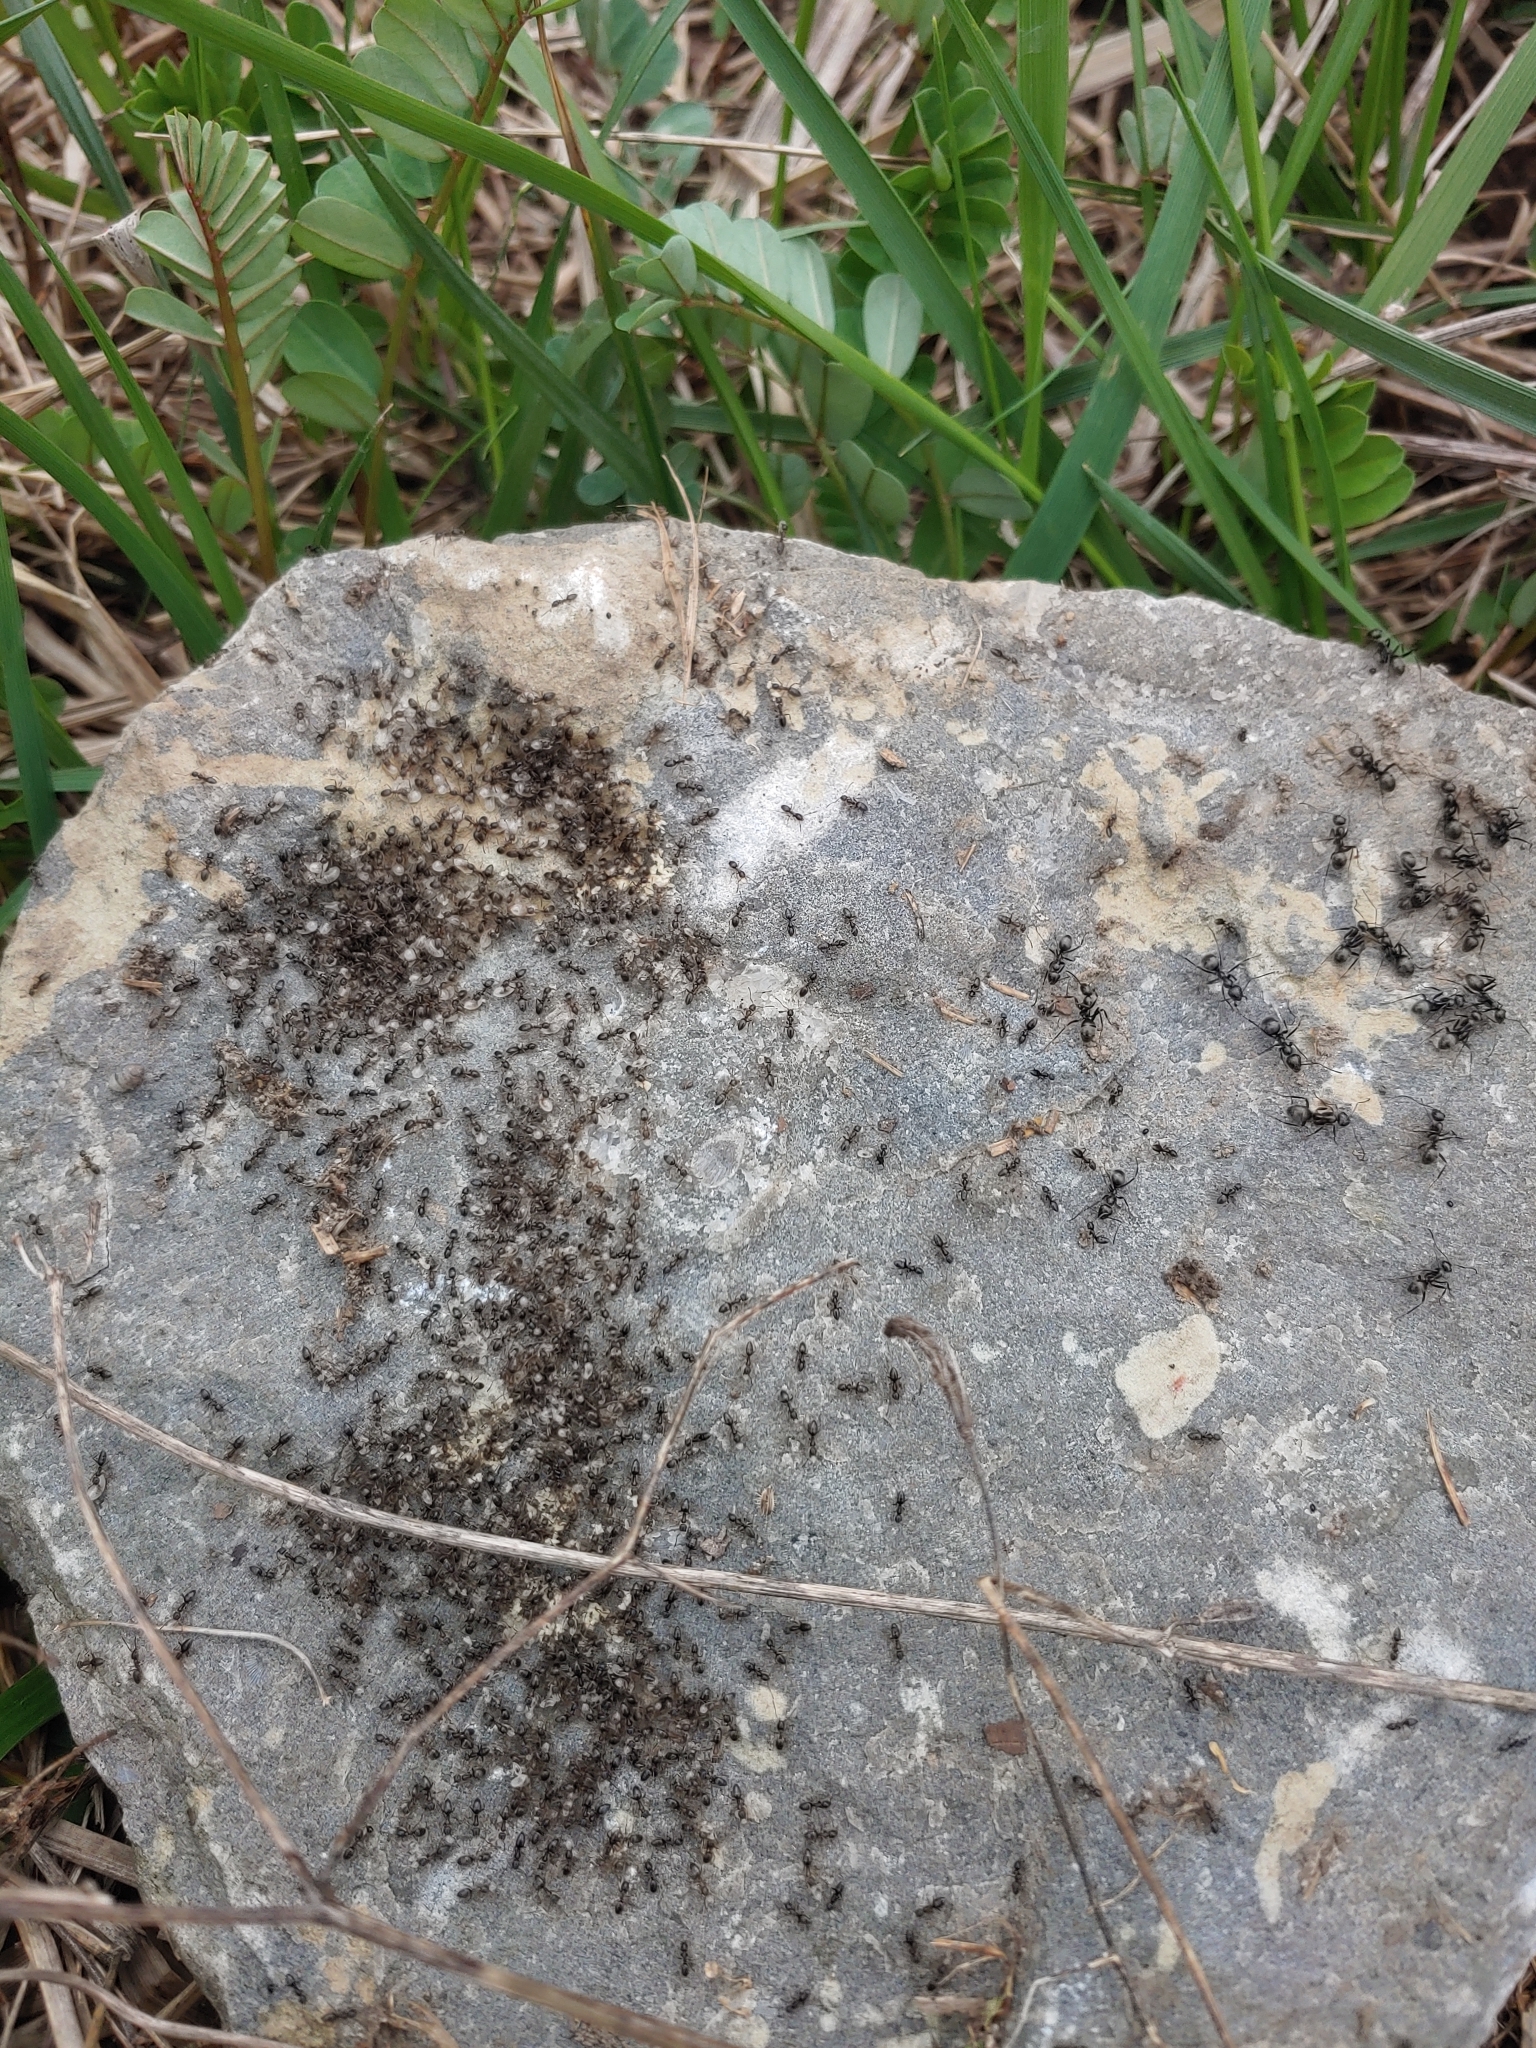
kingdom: Animalia
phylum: Arthropoda
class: Insecta
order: Hymenoptera
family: Formicidae
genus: Tapinoma
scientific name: Tapinoma sessile
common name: Odorous house ant
